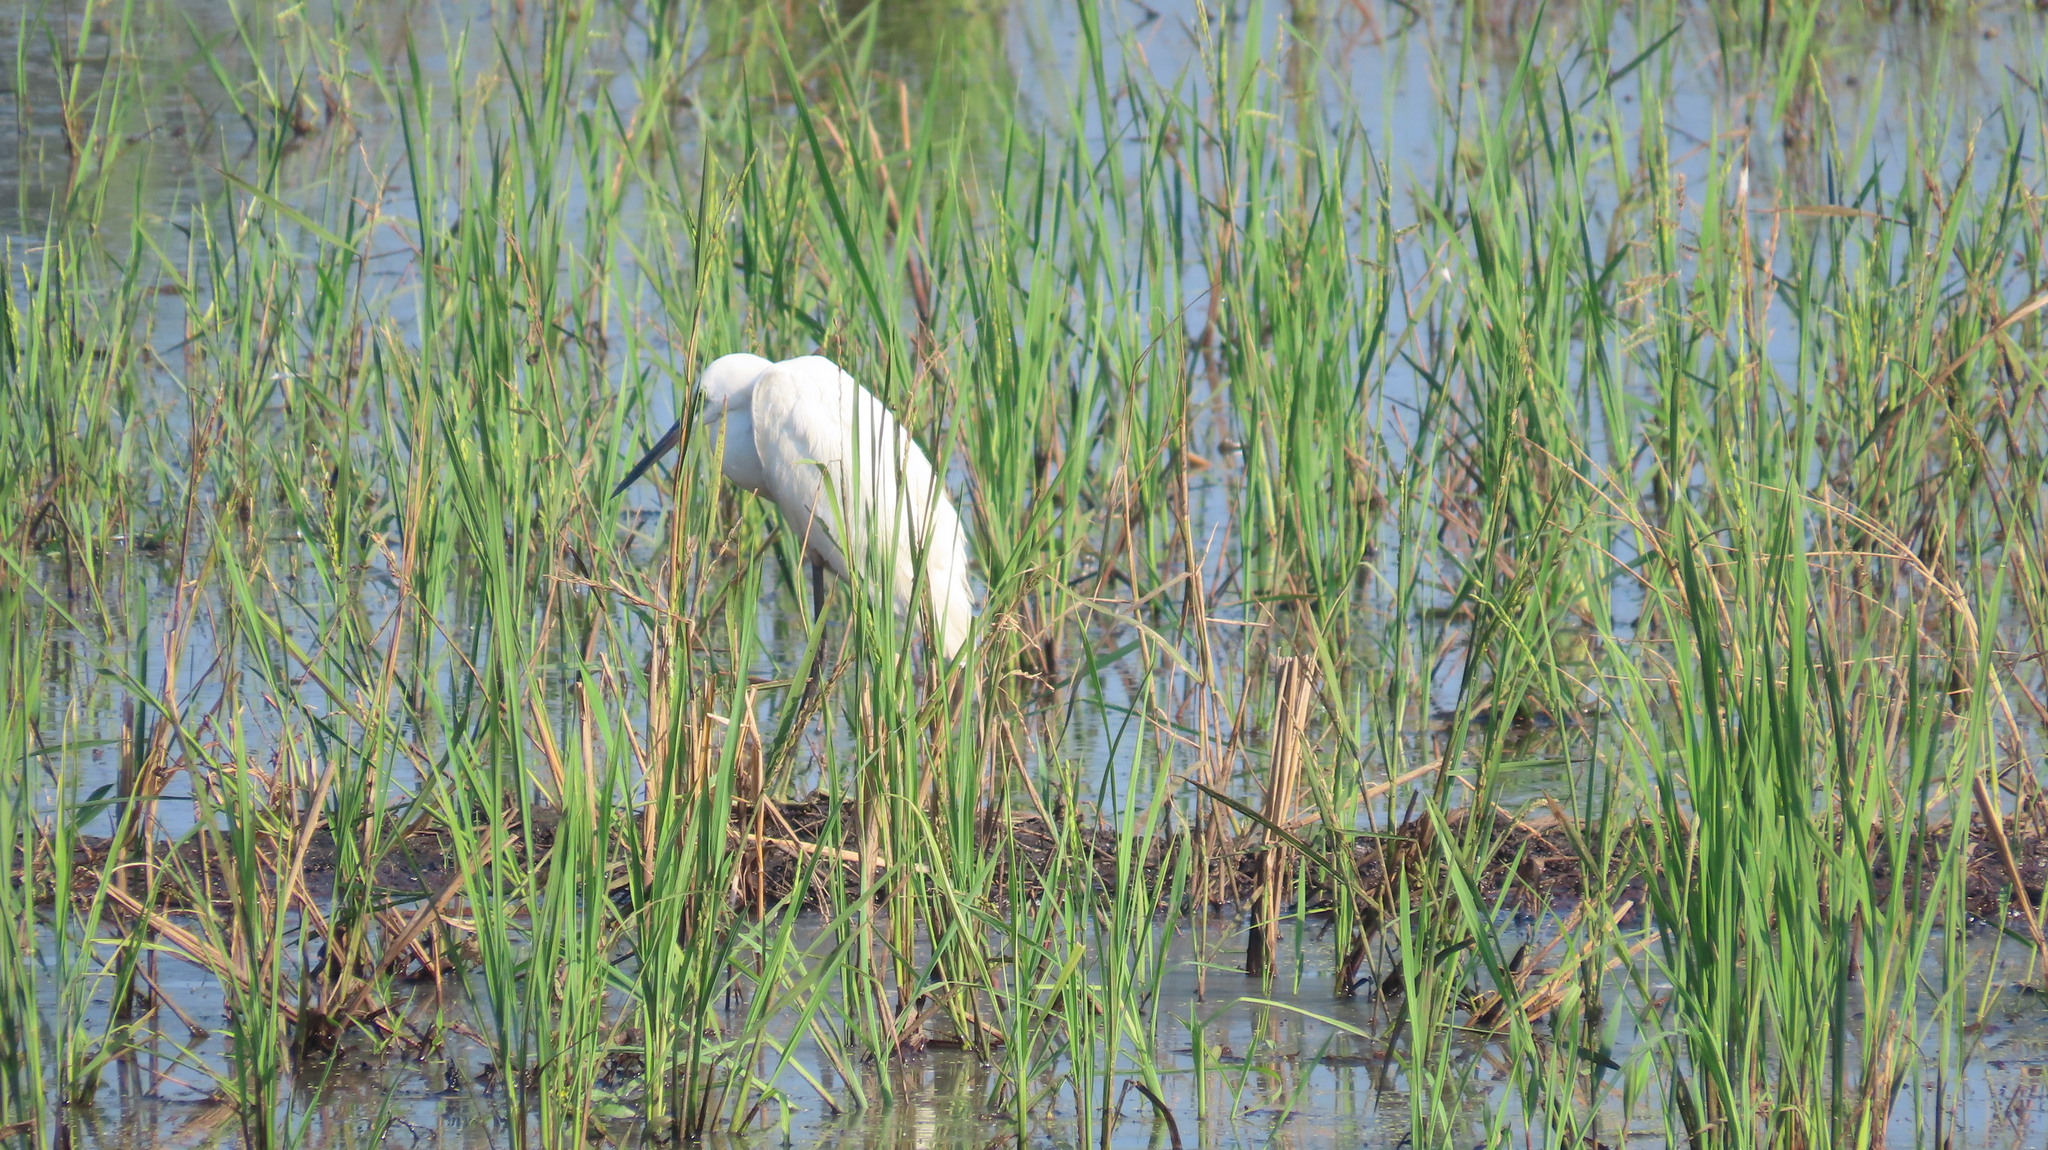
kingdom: Animalia
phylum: Chordata
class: Aves
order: Pelecaniformes
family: Ardeidae
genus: Egretta
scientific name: Egretta garzetta
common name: Little egret
